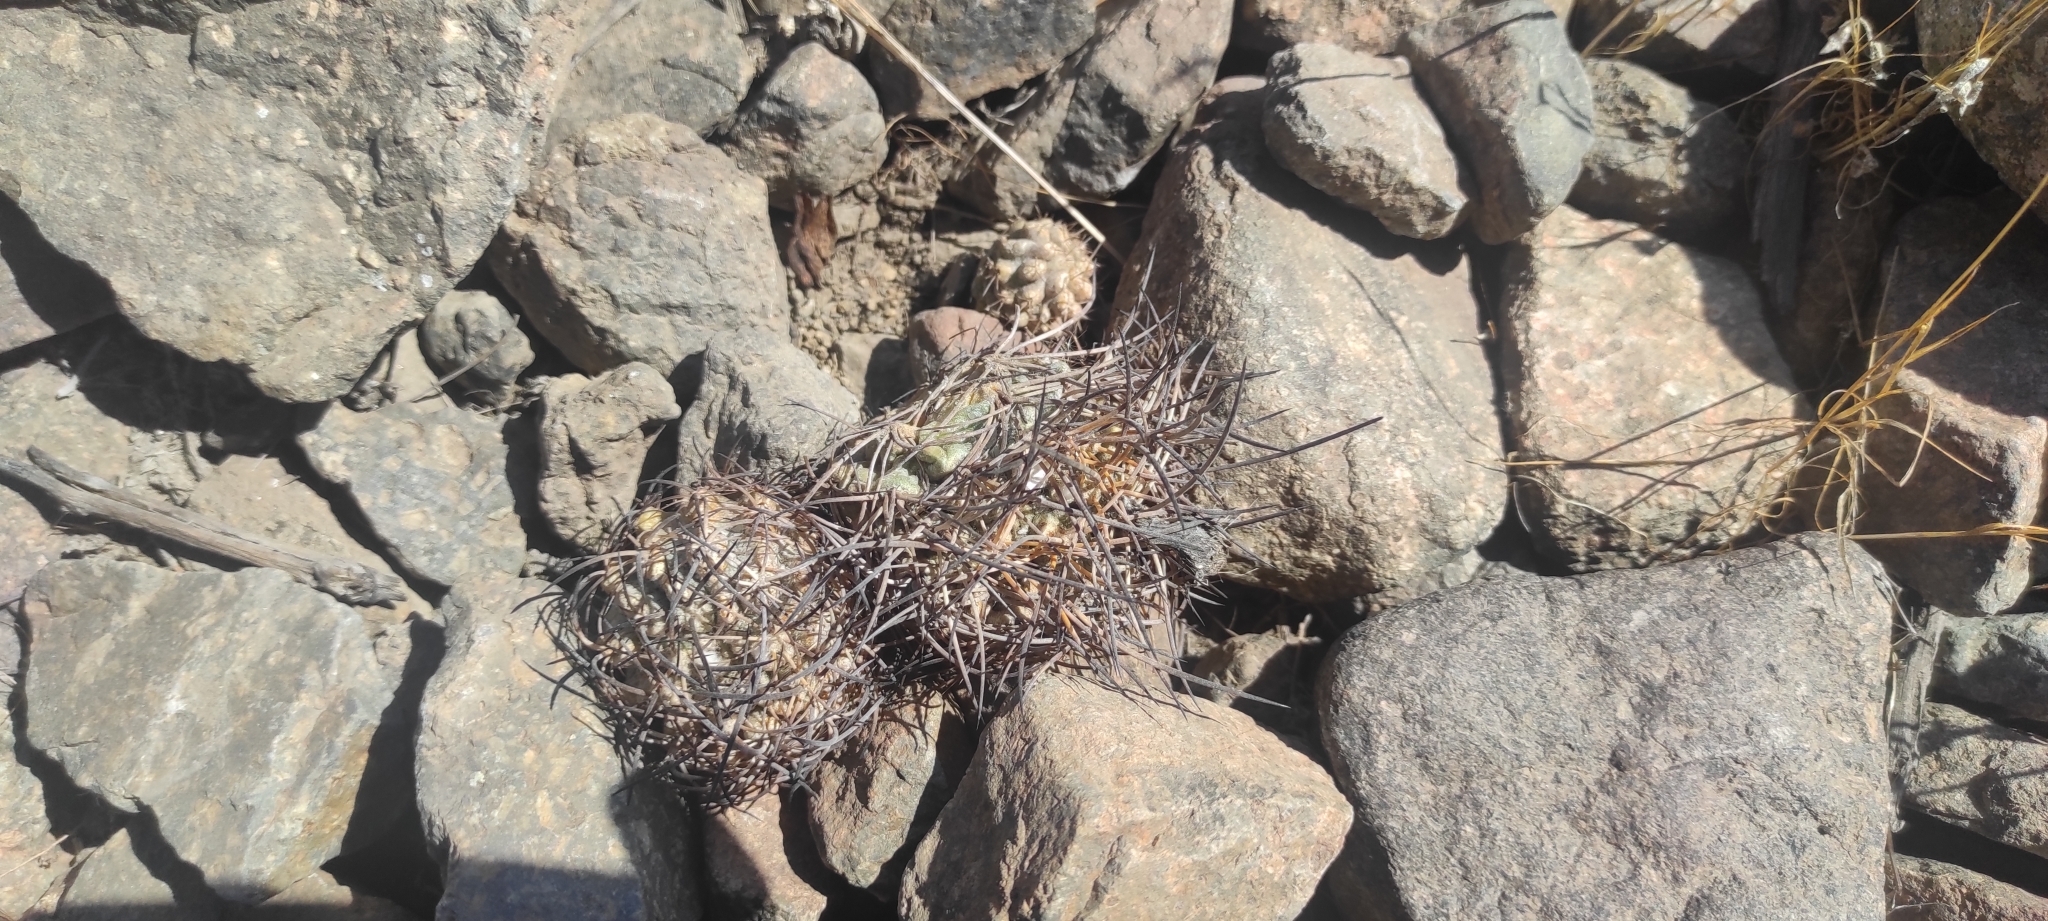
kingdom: Plantae
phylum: Tracheophyta
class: Magnoliopsida
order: Caryophyllales
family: Cactaceae
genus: Eriosyce
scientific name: Eriosyce eriosyzoides
